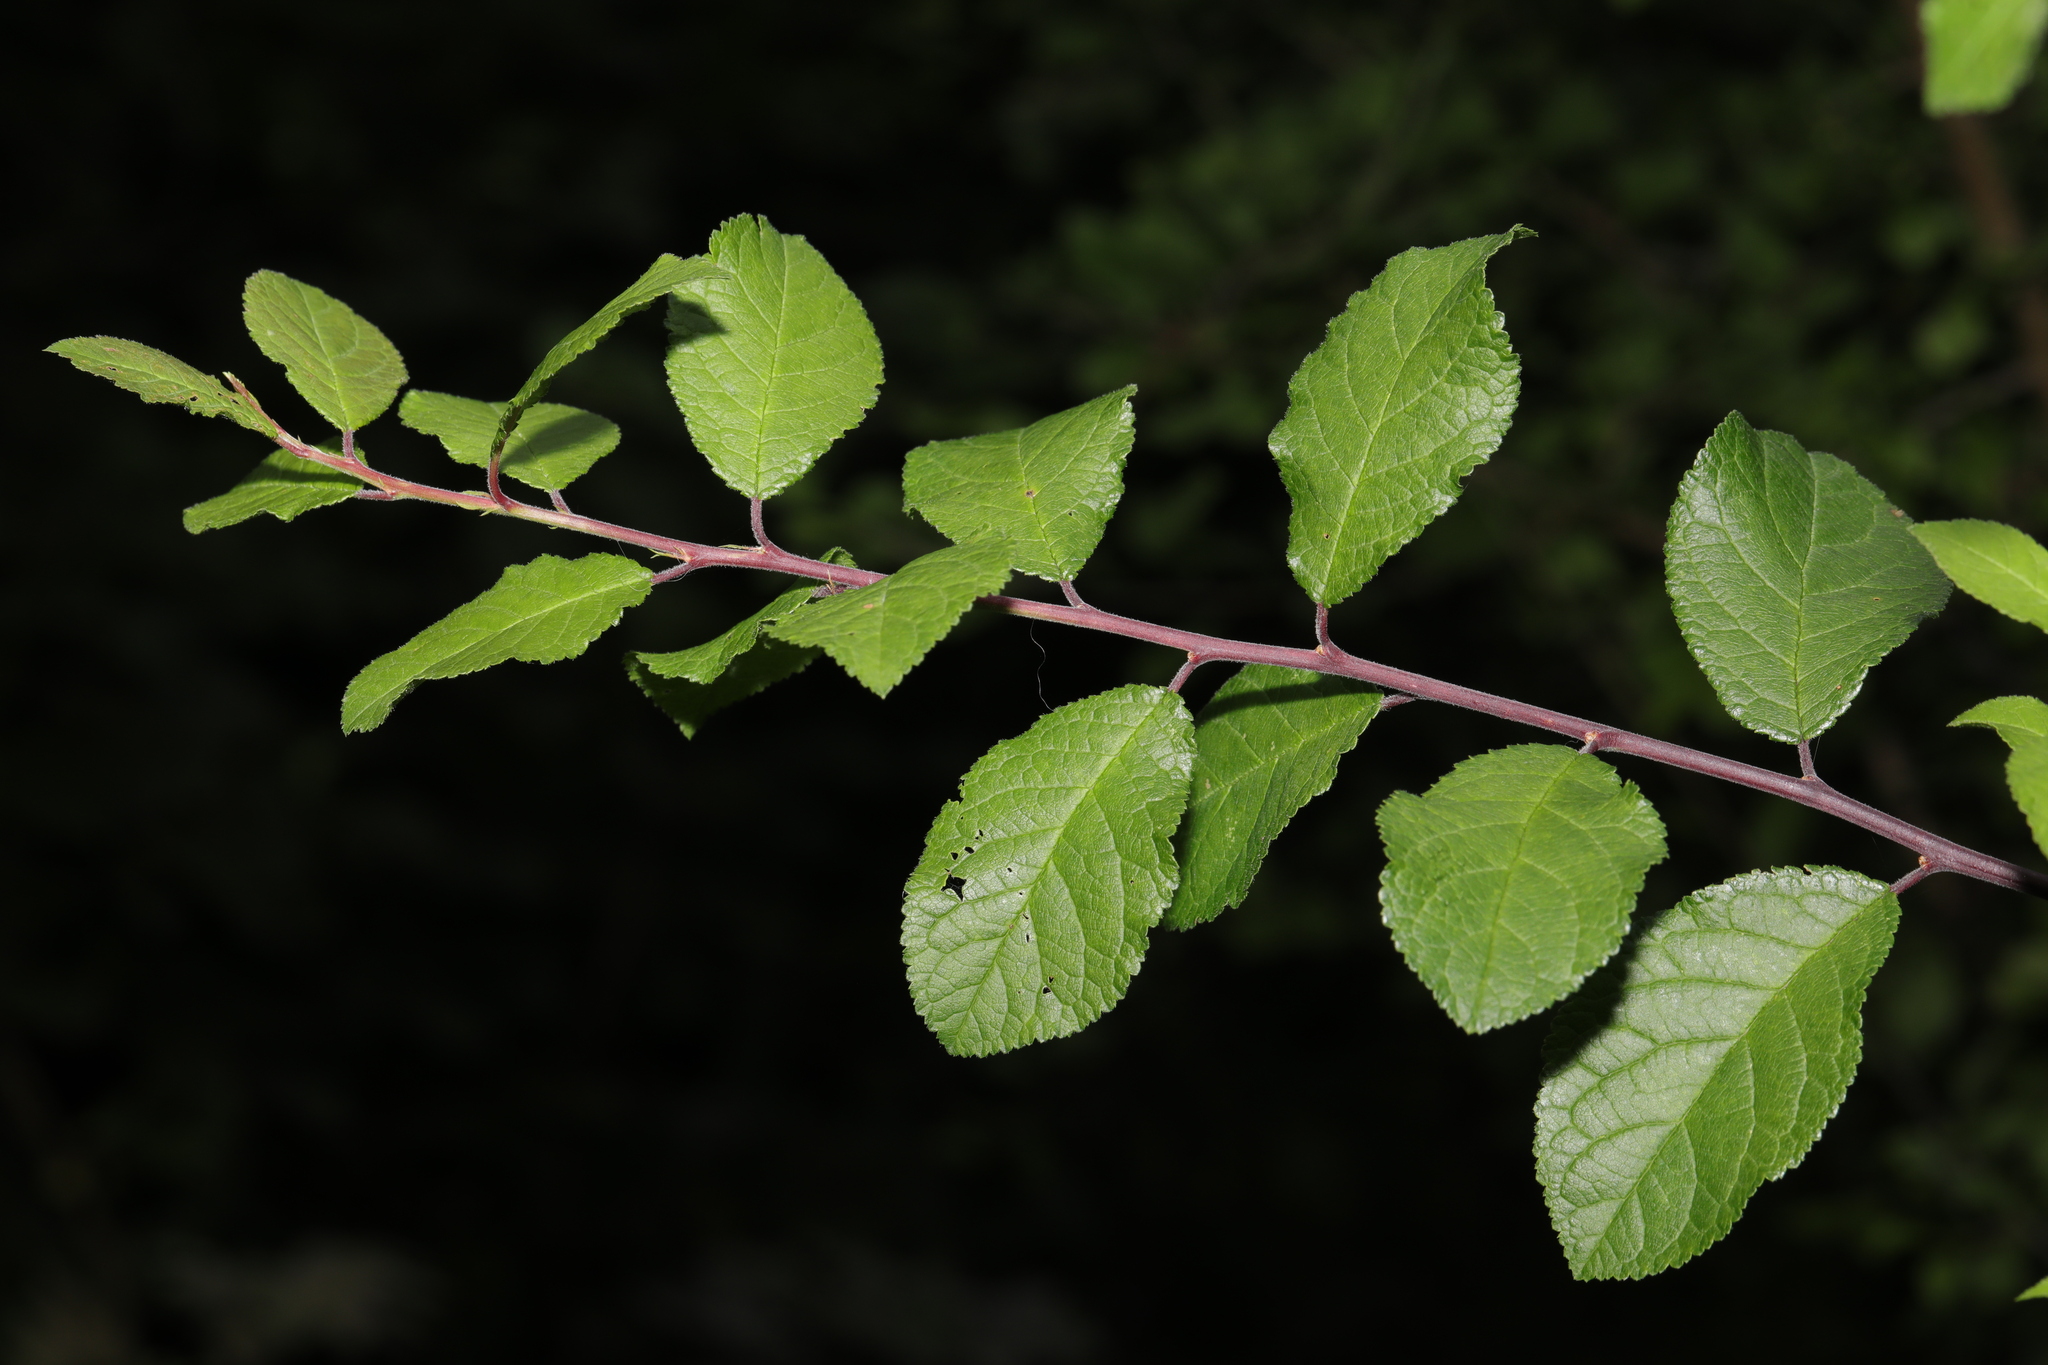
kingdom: Plantae
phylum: Tracheophyta
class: Magnoliopsida
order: Rosales
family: Rosaceae
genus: Prunus
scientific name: Prunus spinosa
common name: Blackthorn
